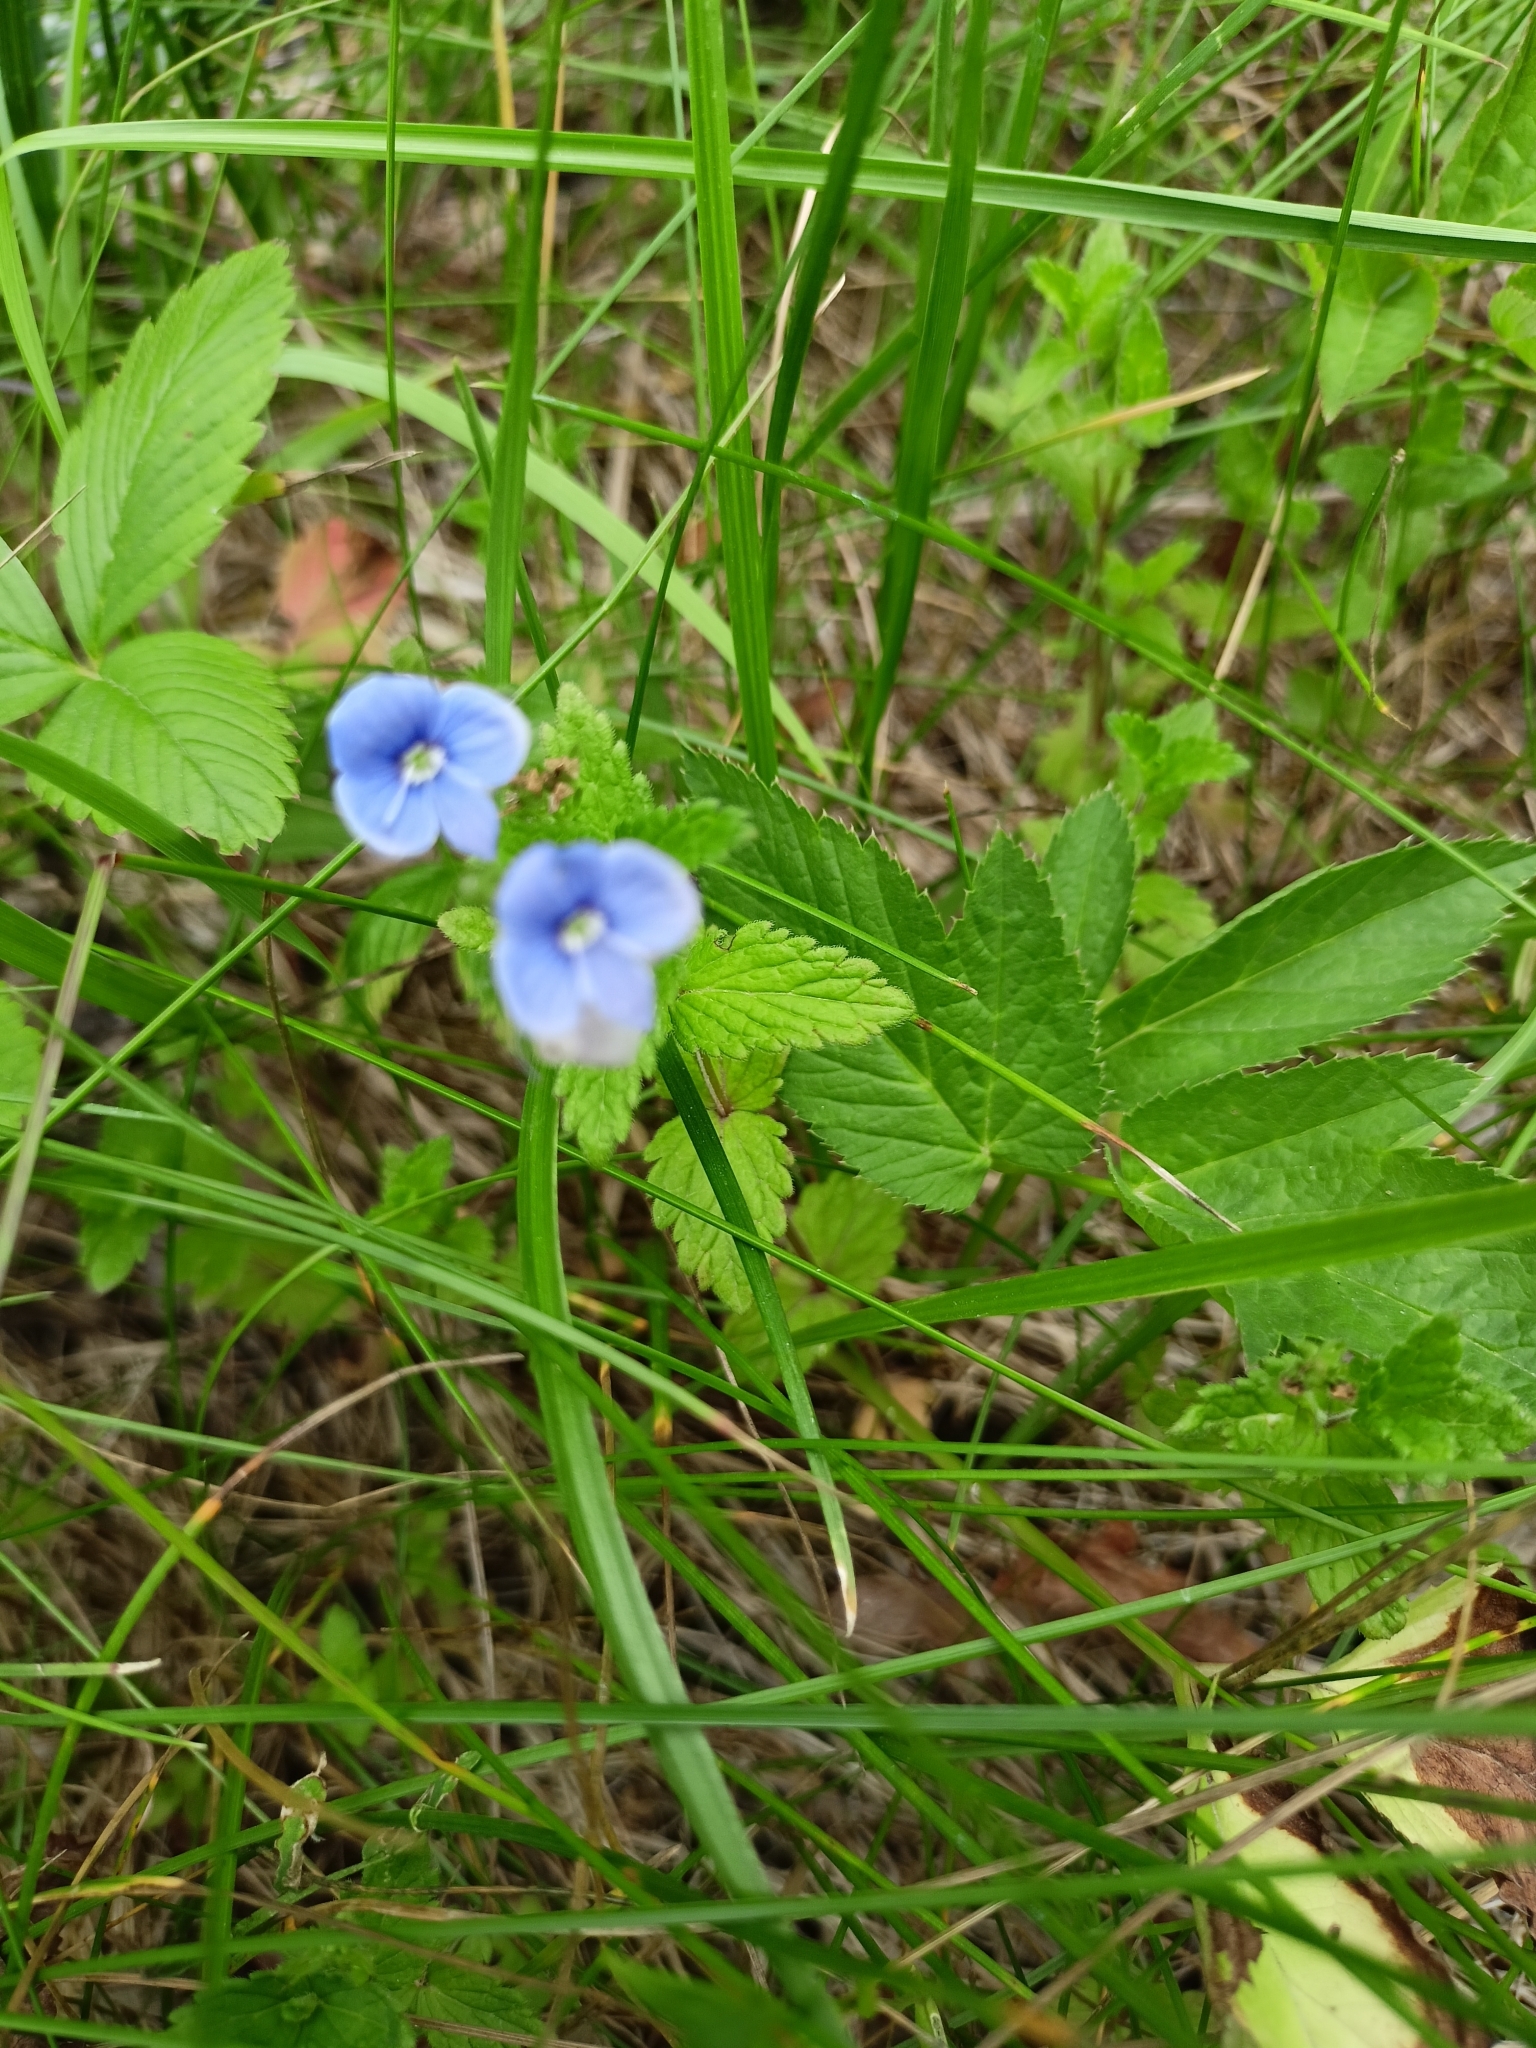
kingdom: Plantae
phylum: Tracheophyta
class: Magnoliopsida
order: Lamiales
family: Plantaginaceae
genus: Veronica
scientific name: Veronica chamaedrys
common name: Germander speedwell
